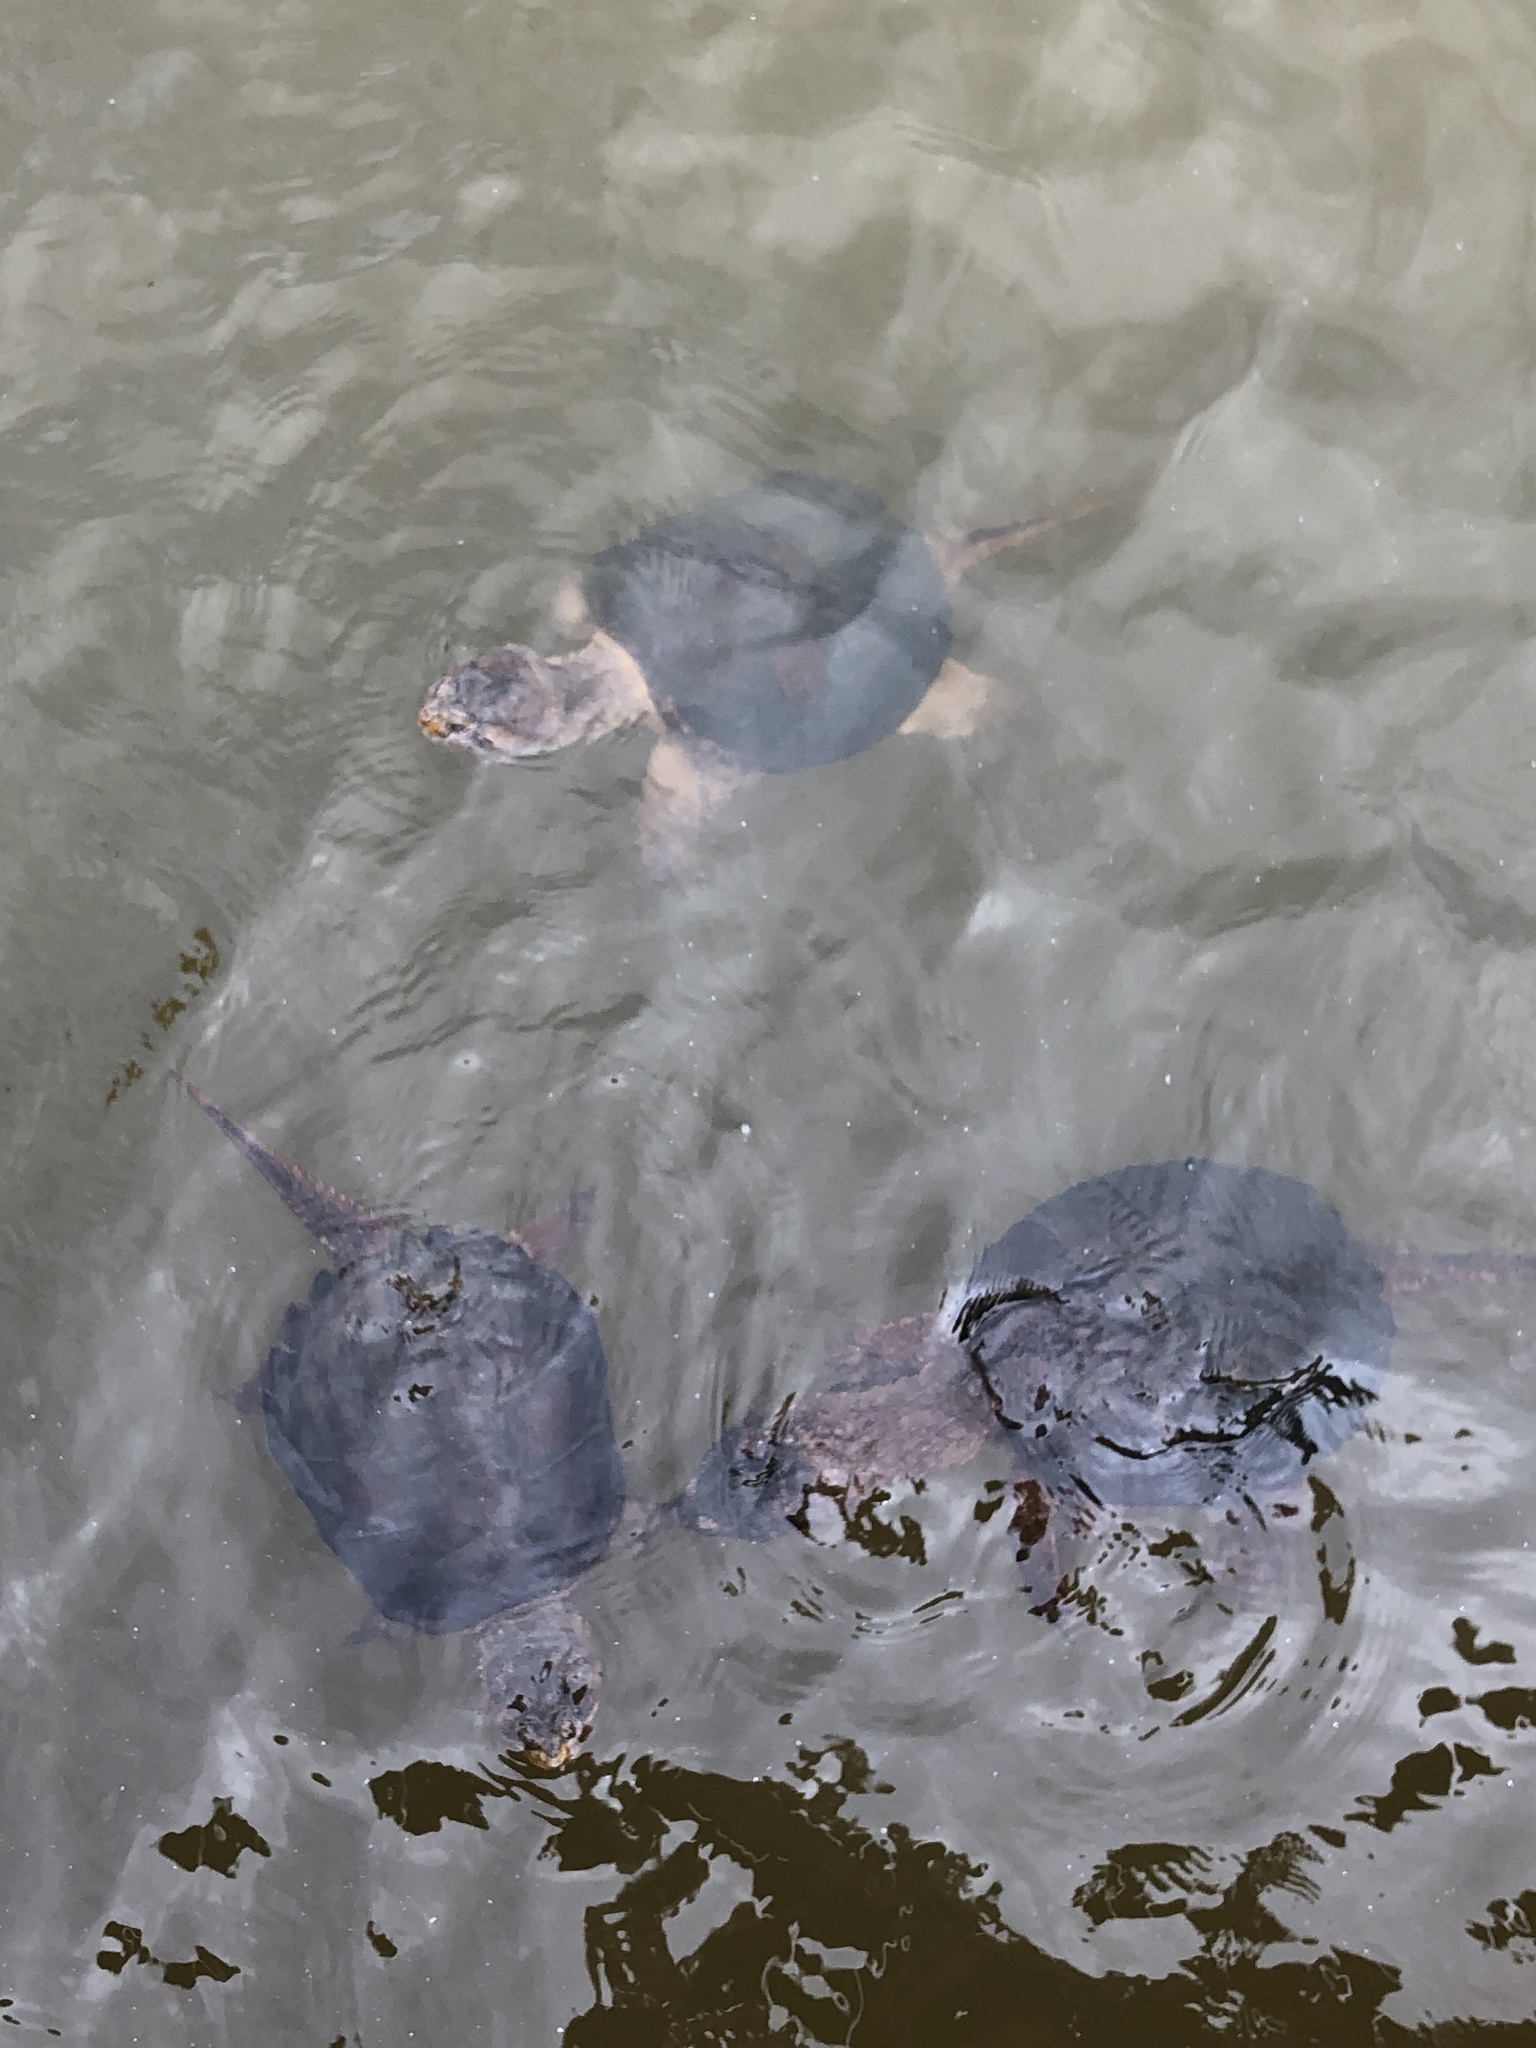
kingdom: Animalia
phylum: Chordata
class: Testudines
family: Chelydridae
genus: Chelydra
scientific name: Chelydra serpentina
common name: Common snapping turtle
